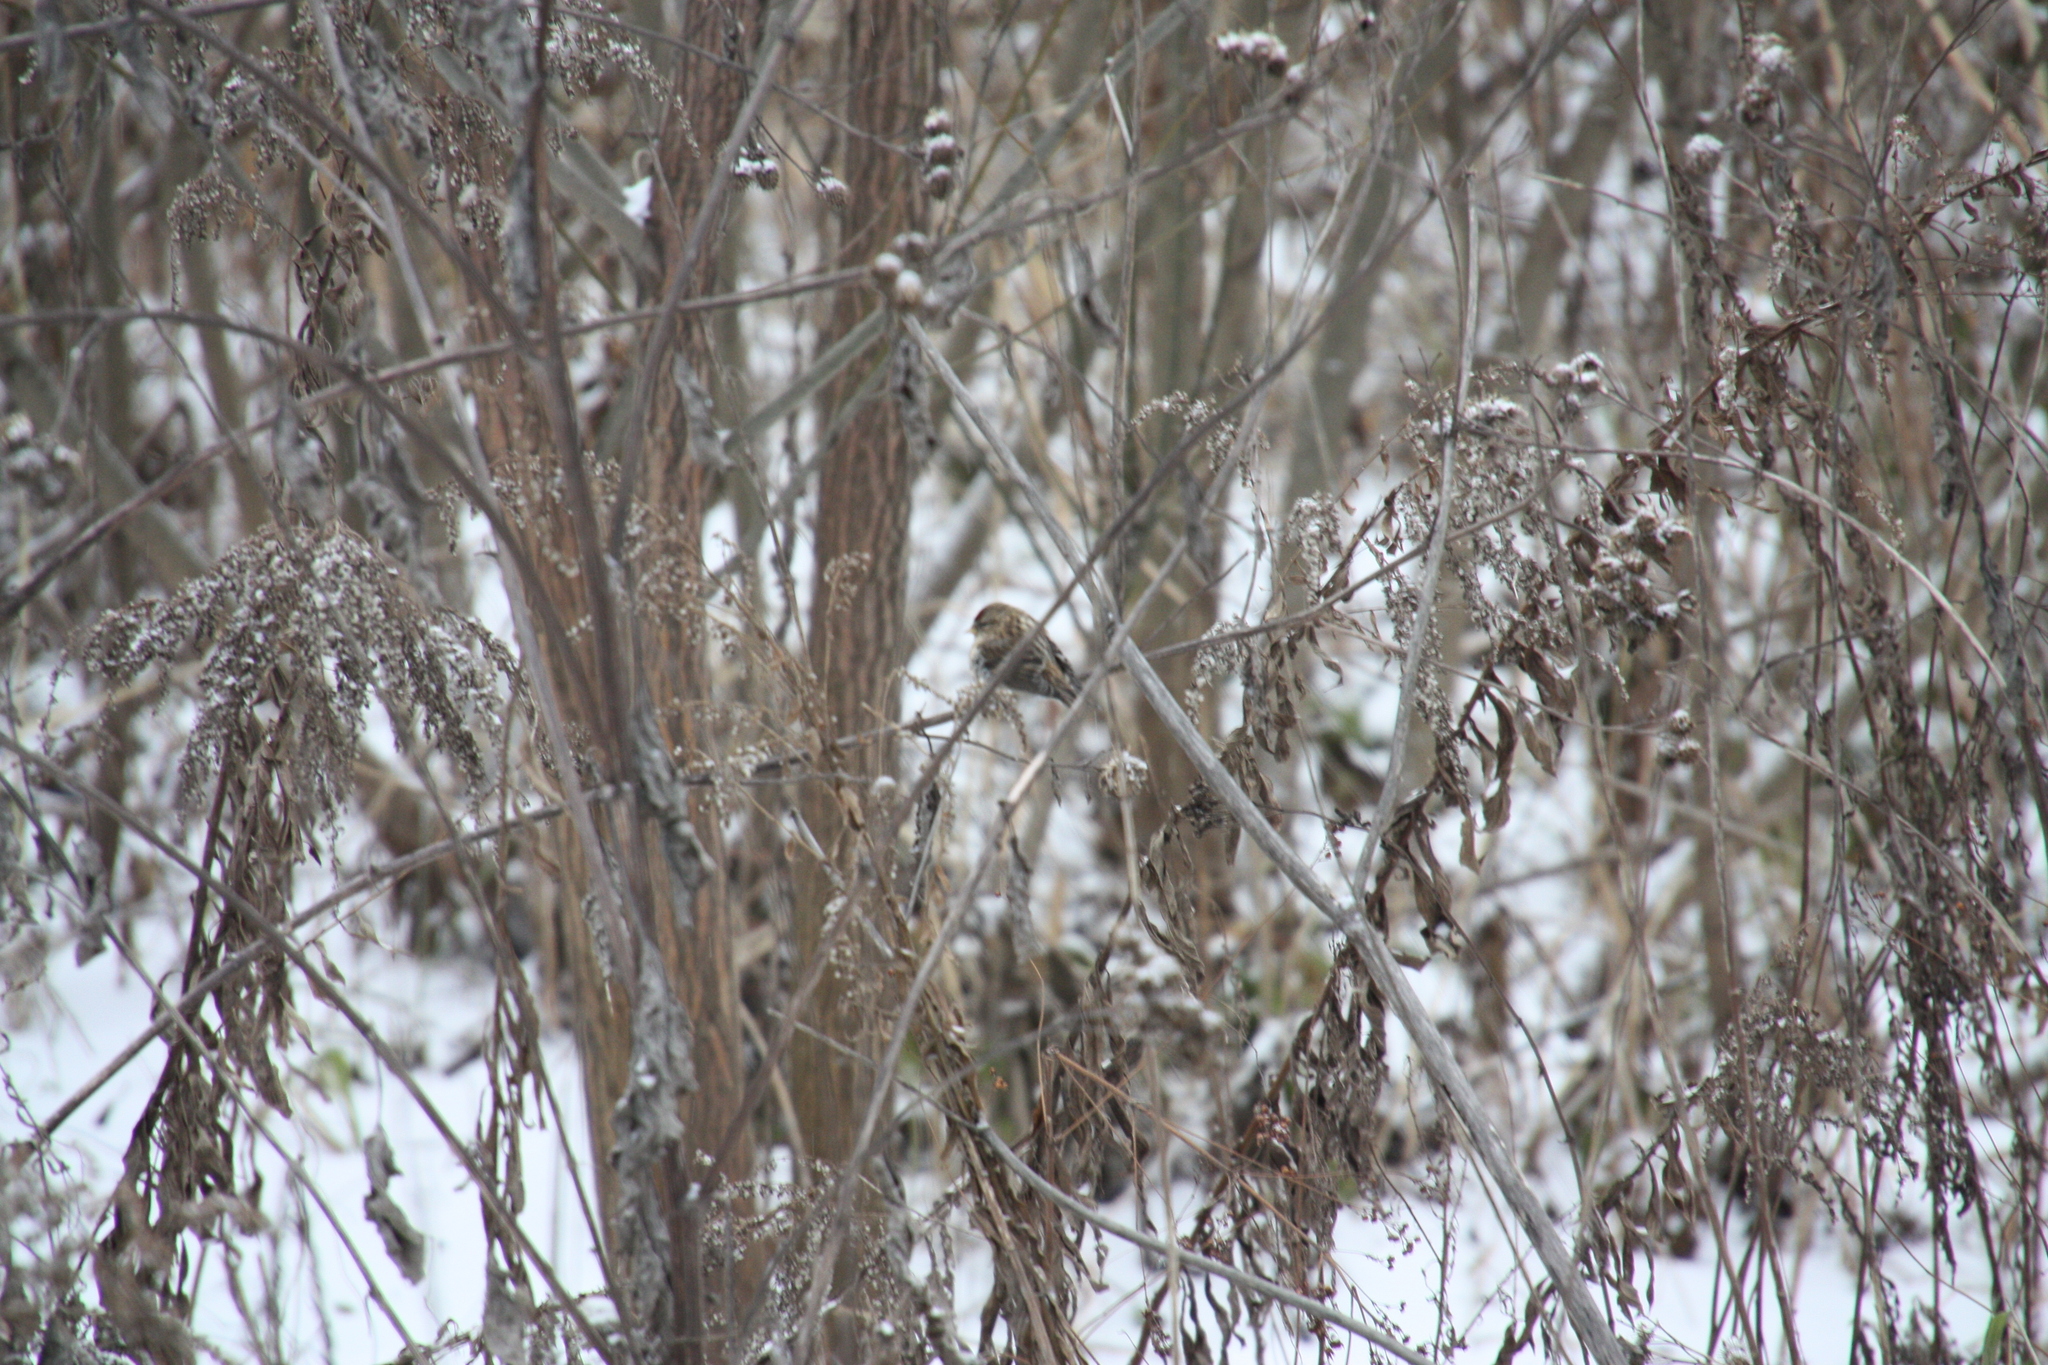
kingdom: Animalia
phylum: Chordata
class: Aves
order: Passeriformes
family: Fringillidae
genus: Acanthis
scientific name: Acanthis flammea
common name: Common redpoll
